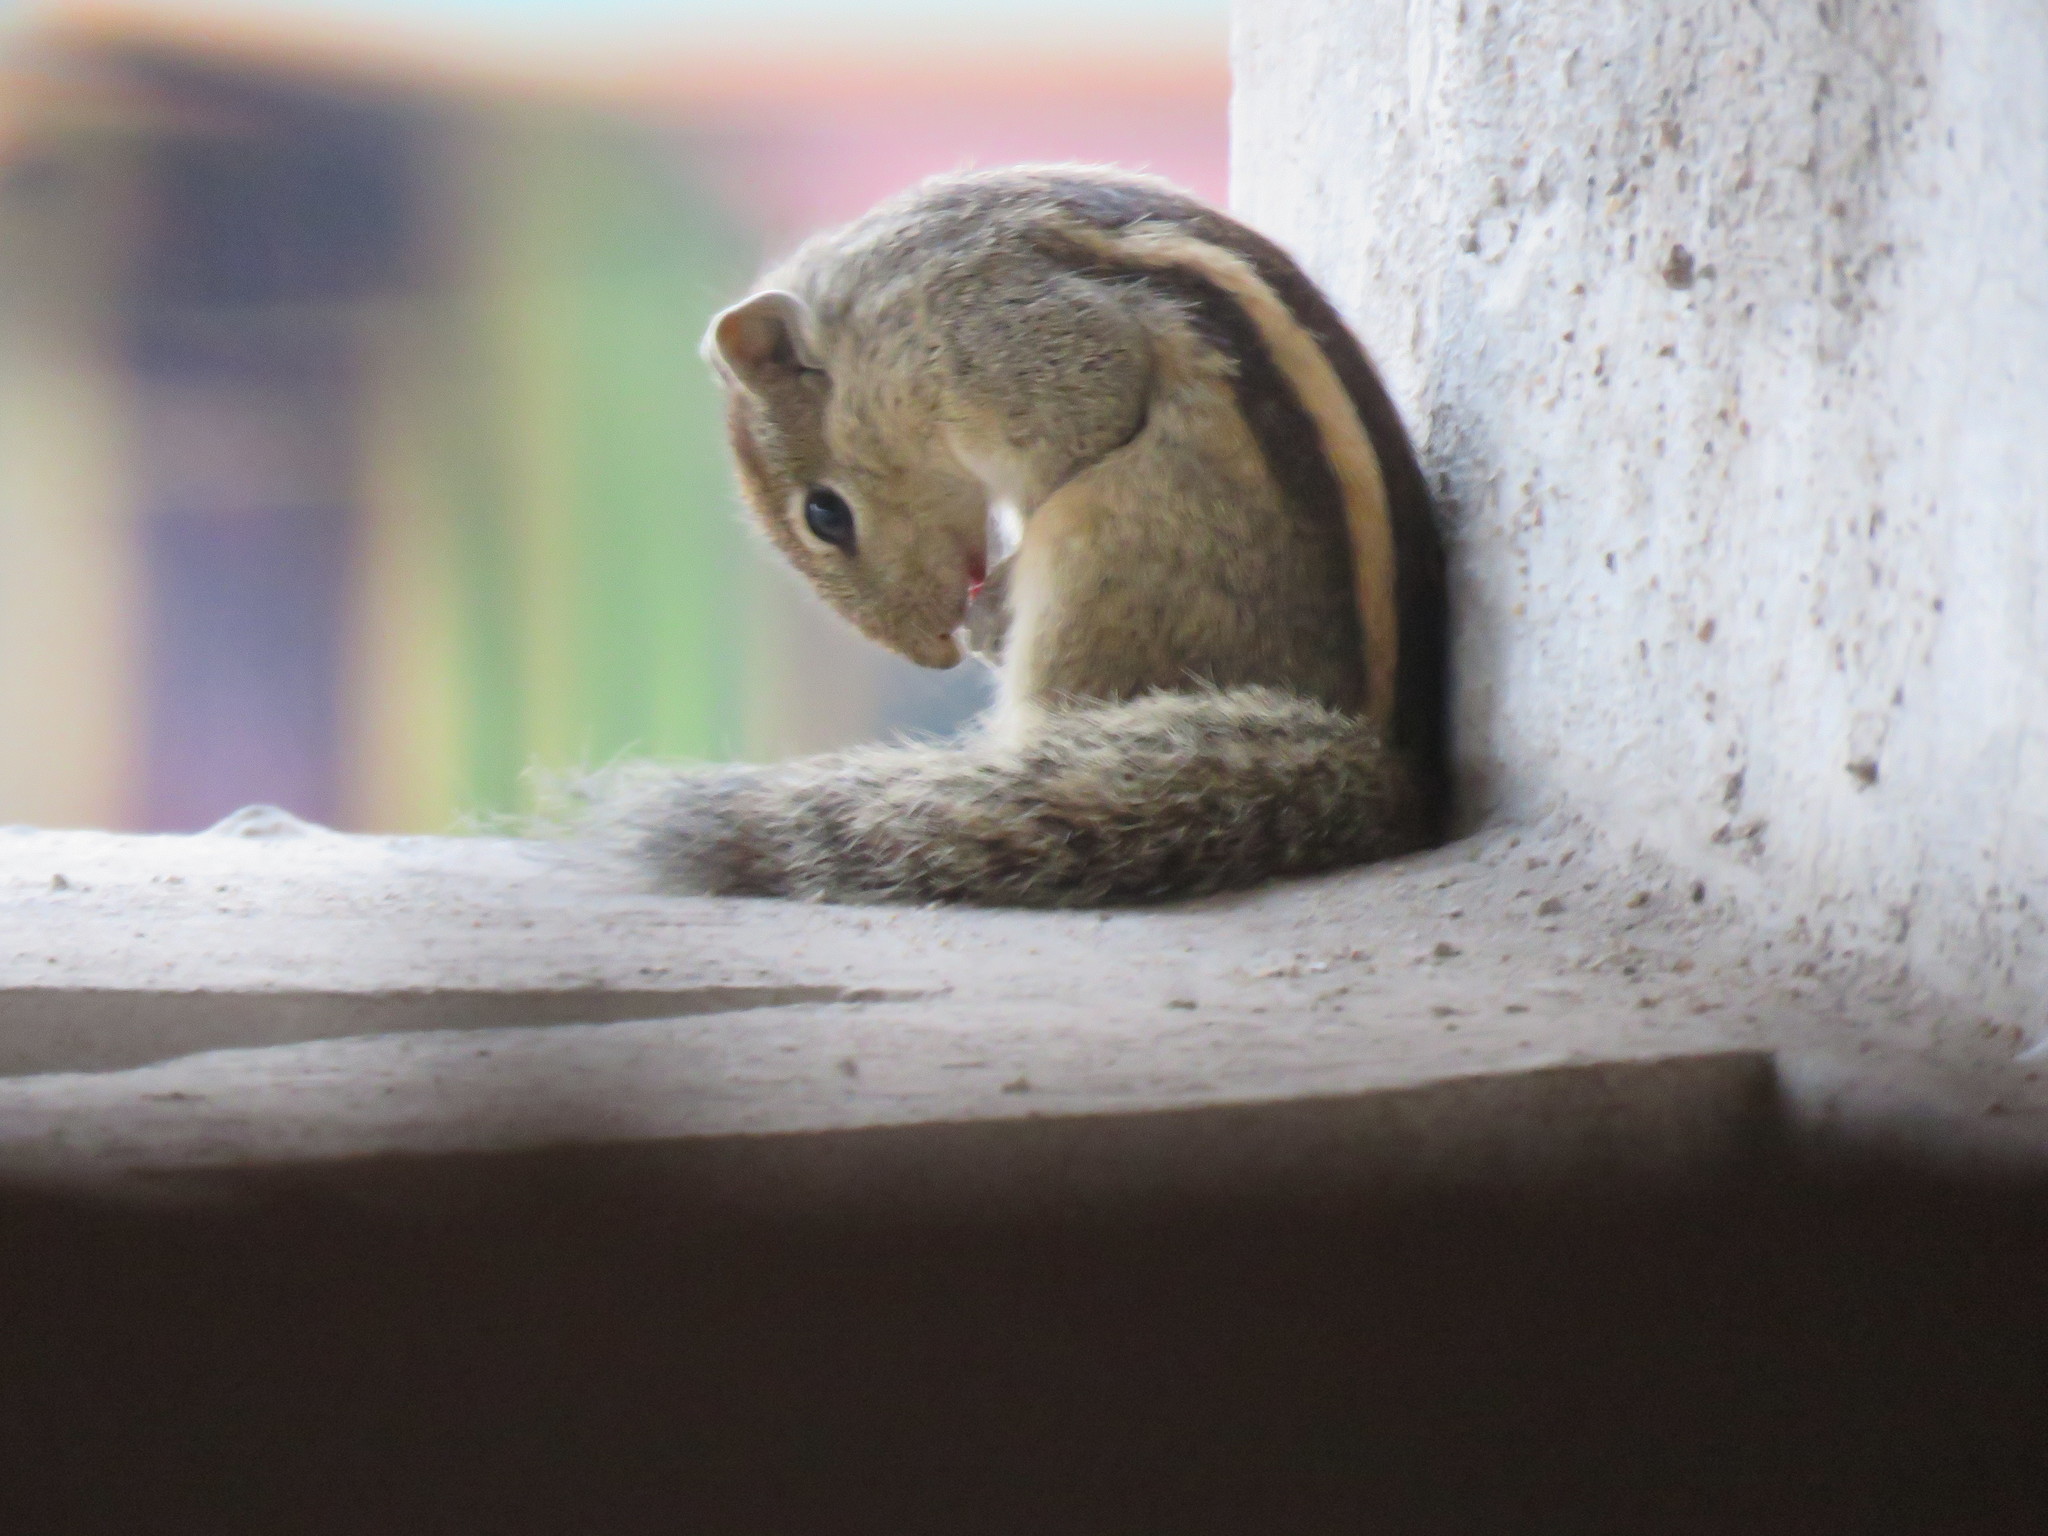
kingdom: Animalia
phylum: Chordata
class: Mammalia
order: Rodentia
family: Sciuridae
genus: Funambulus
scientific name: Funambulus palmarum
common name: Indian palm squirrel
